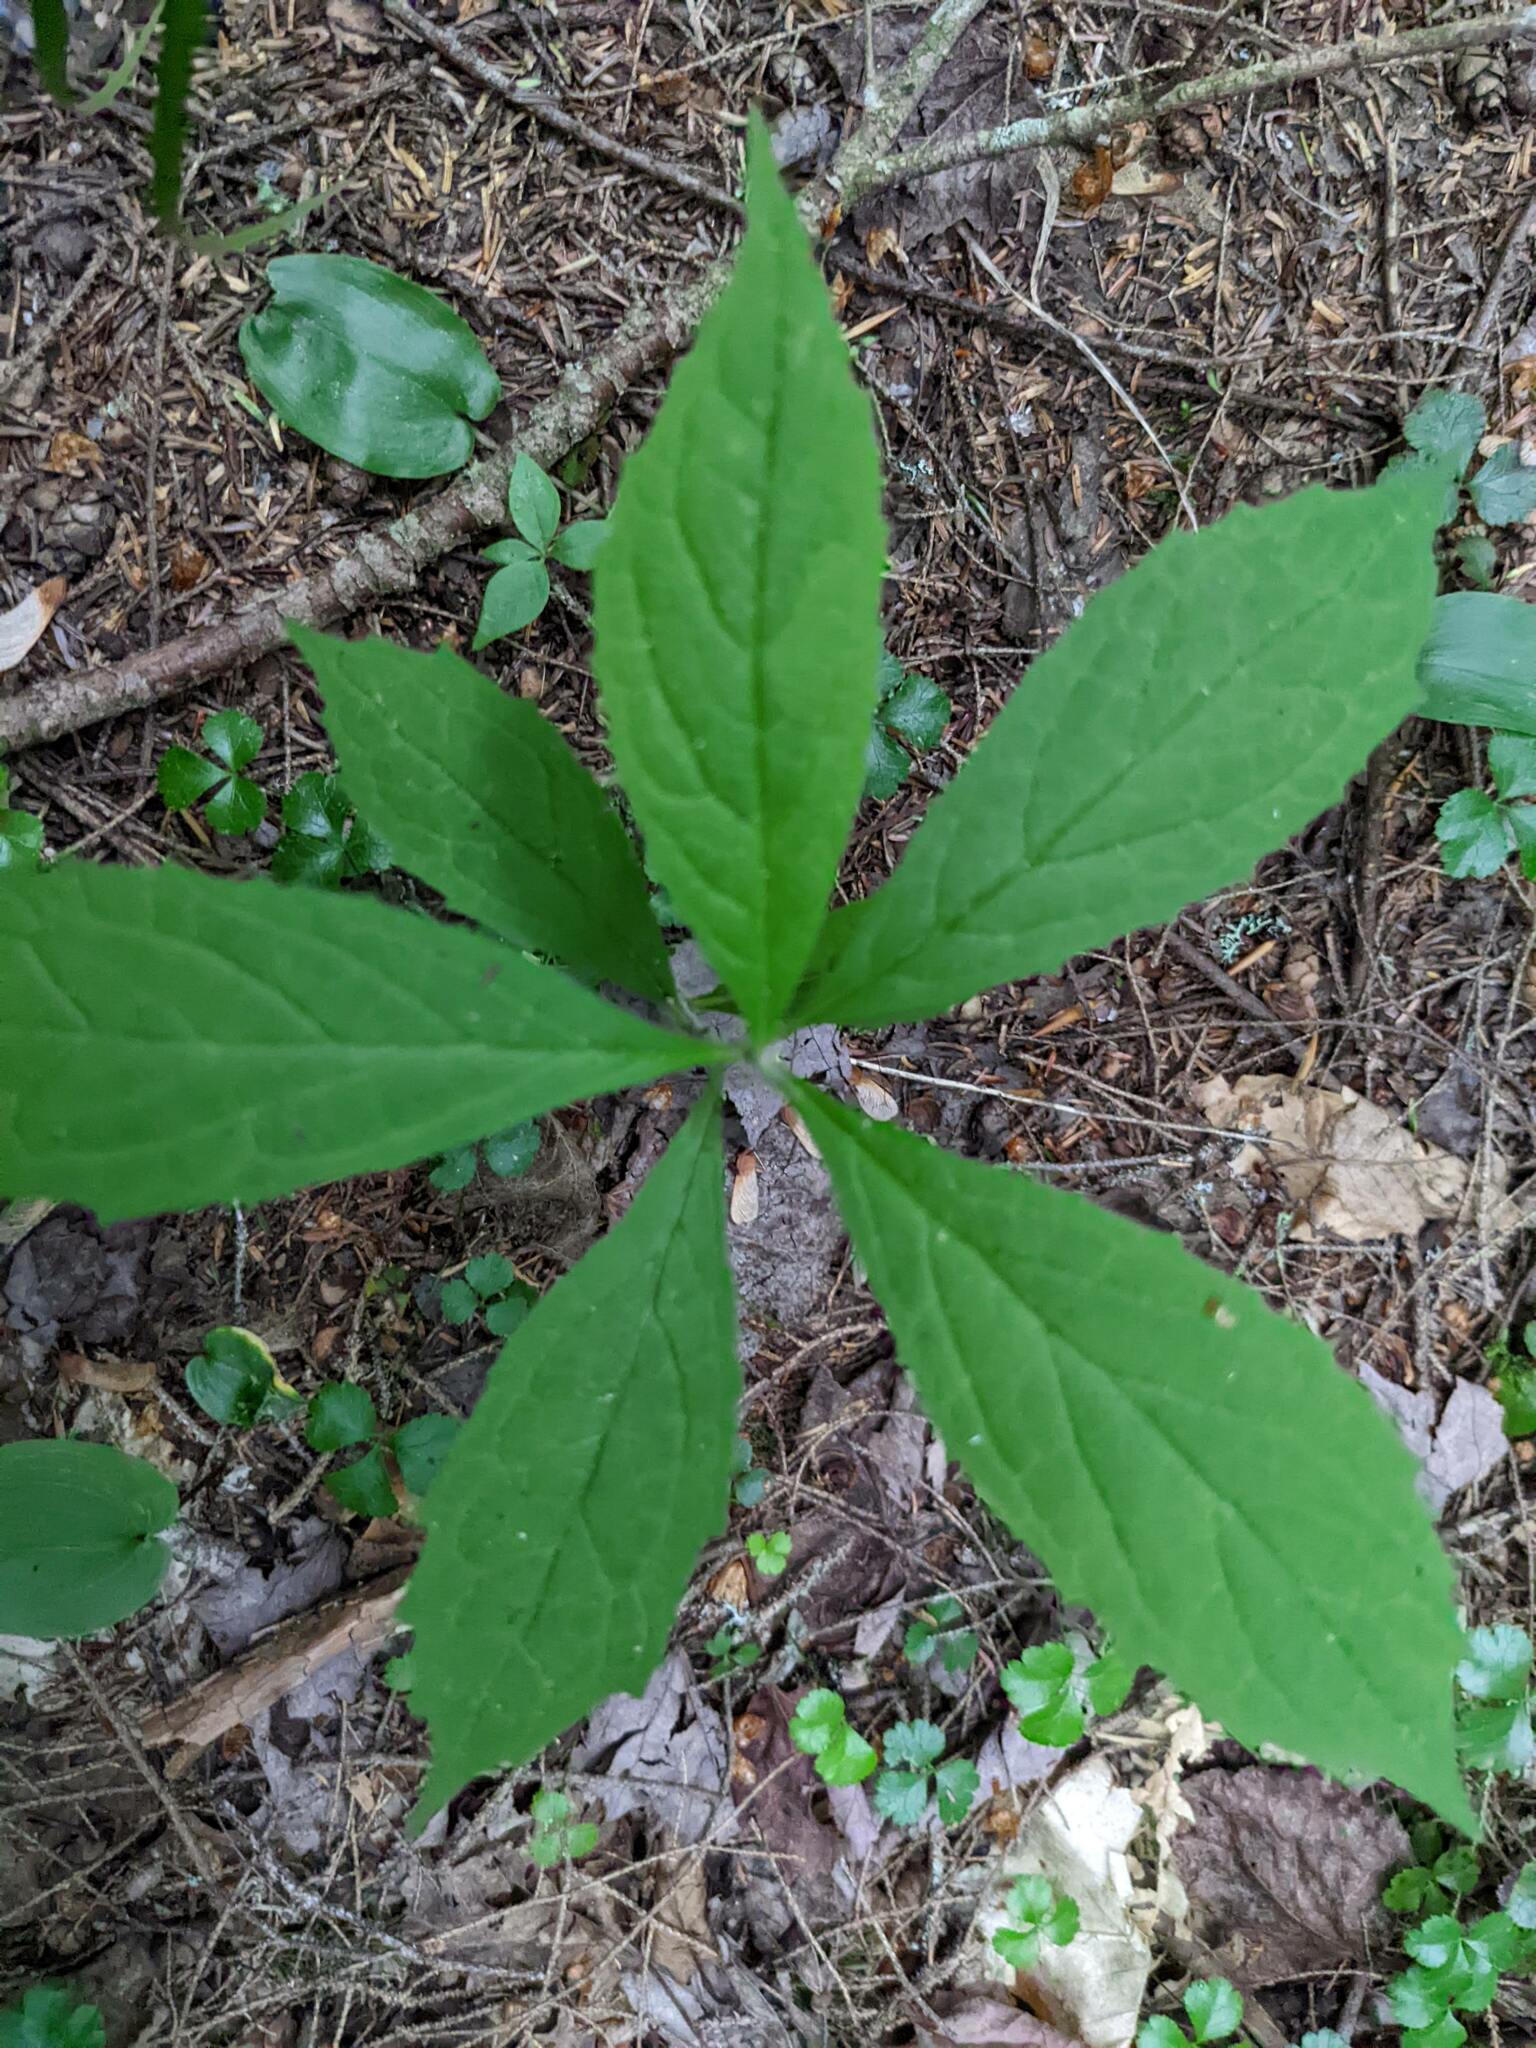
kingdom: Plantae
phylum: Tracheophyta
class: Magnoliopsida
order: Asterales
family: Asteraceae
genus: Oclemena
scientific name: Oclemena acuminata
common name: Mountain aster
